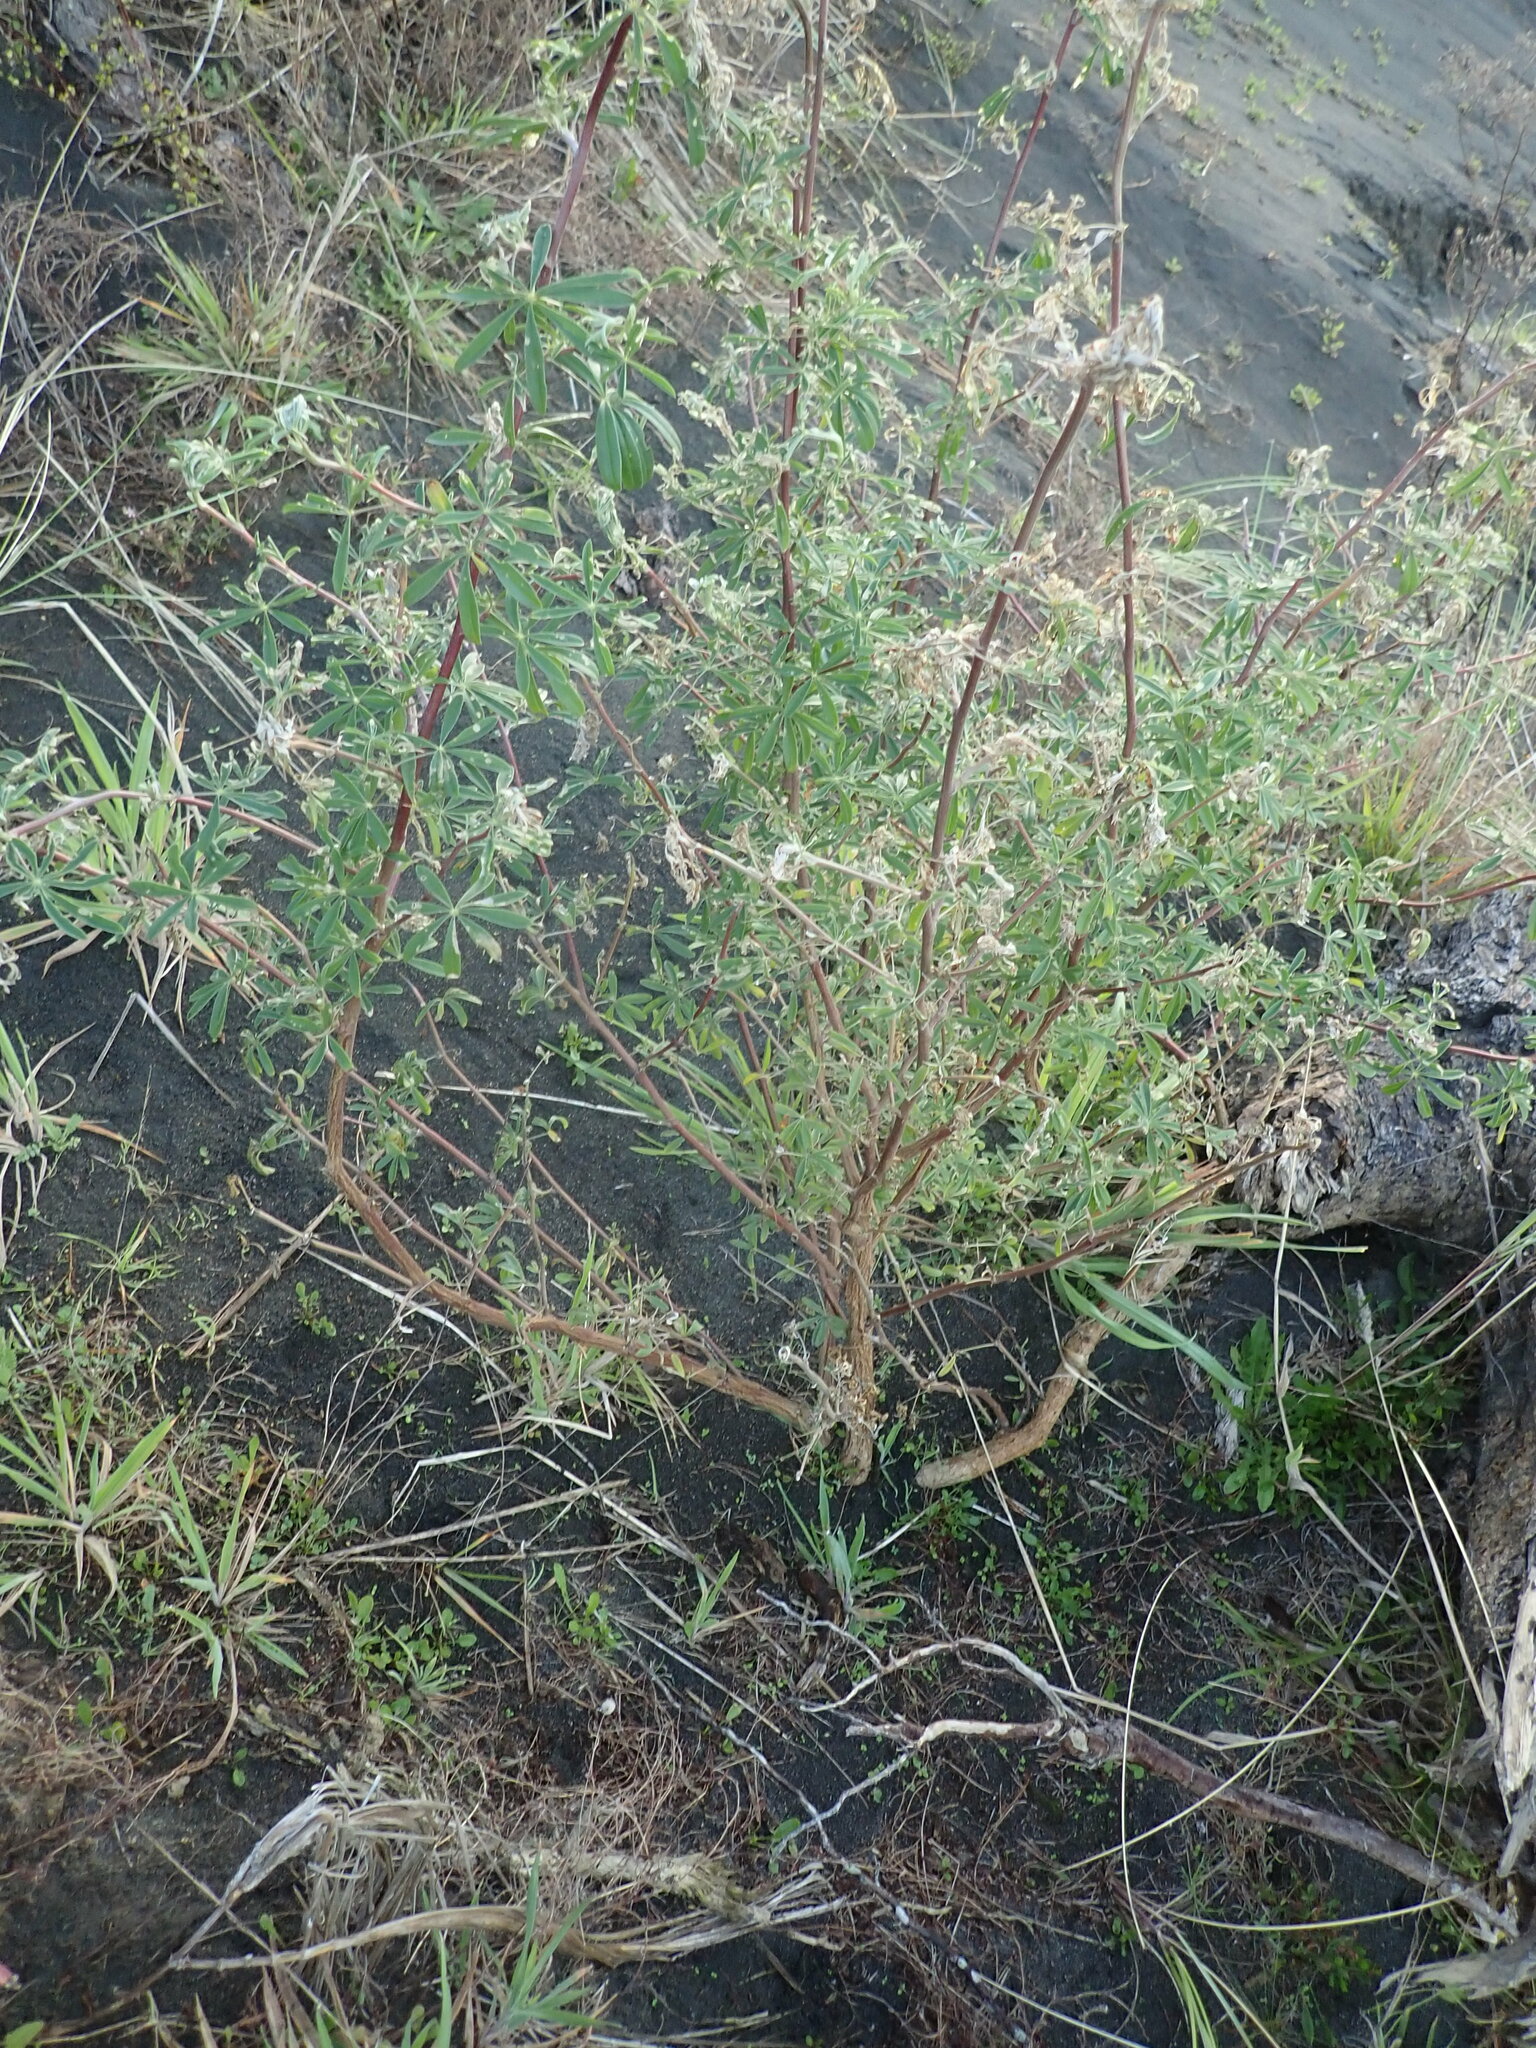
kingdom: Plantae
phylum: Tracheophyta
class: Magnoliopsida
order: Fabales
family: Fabaceae
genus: Lupinus
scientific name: Lupinus arboreus
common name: Yellow bush lupine
